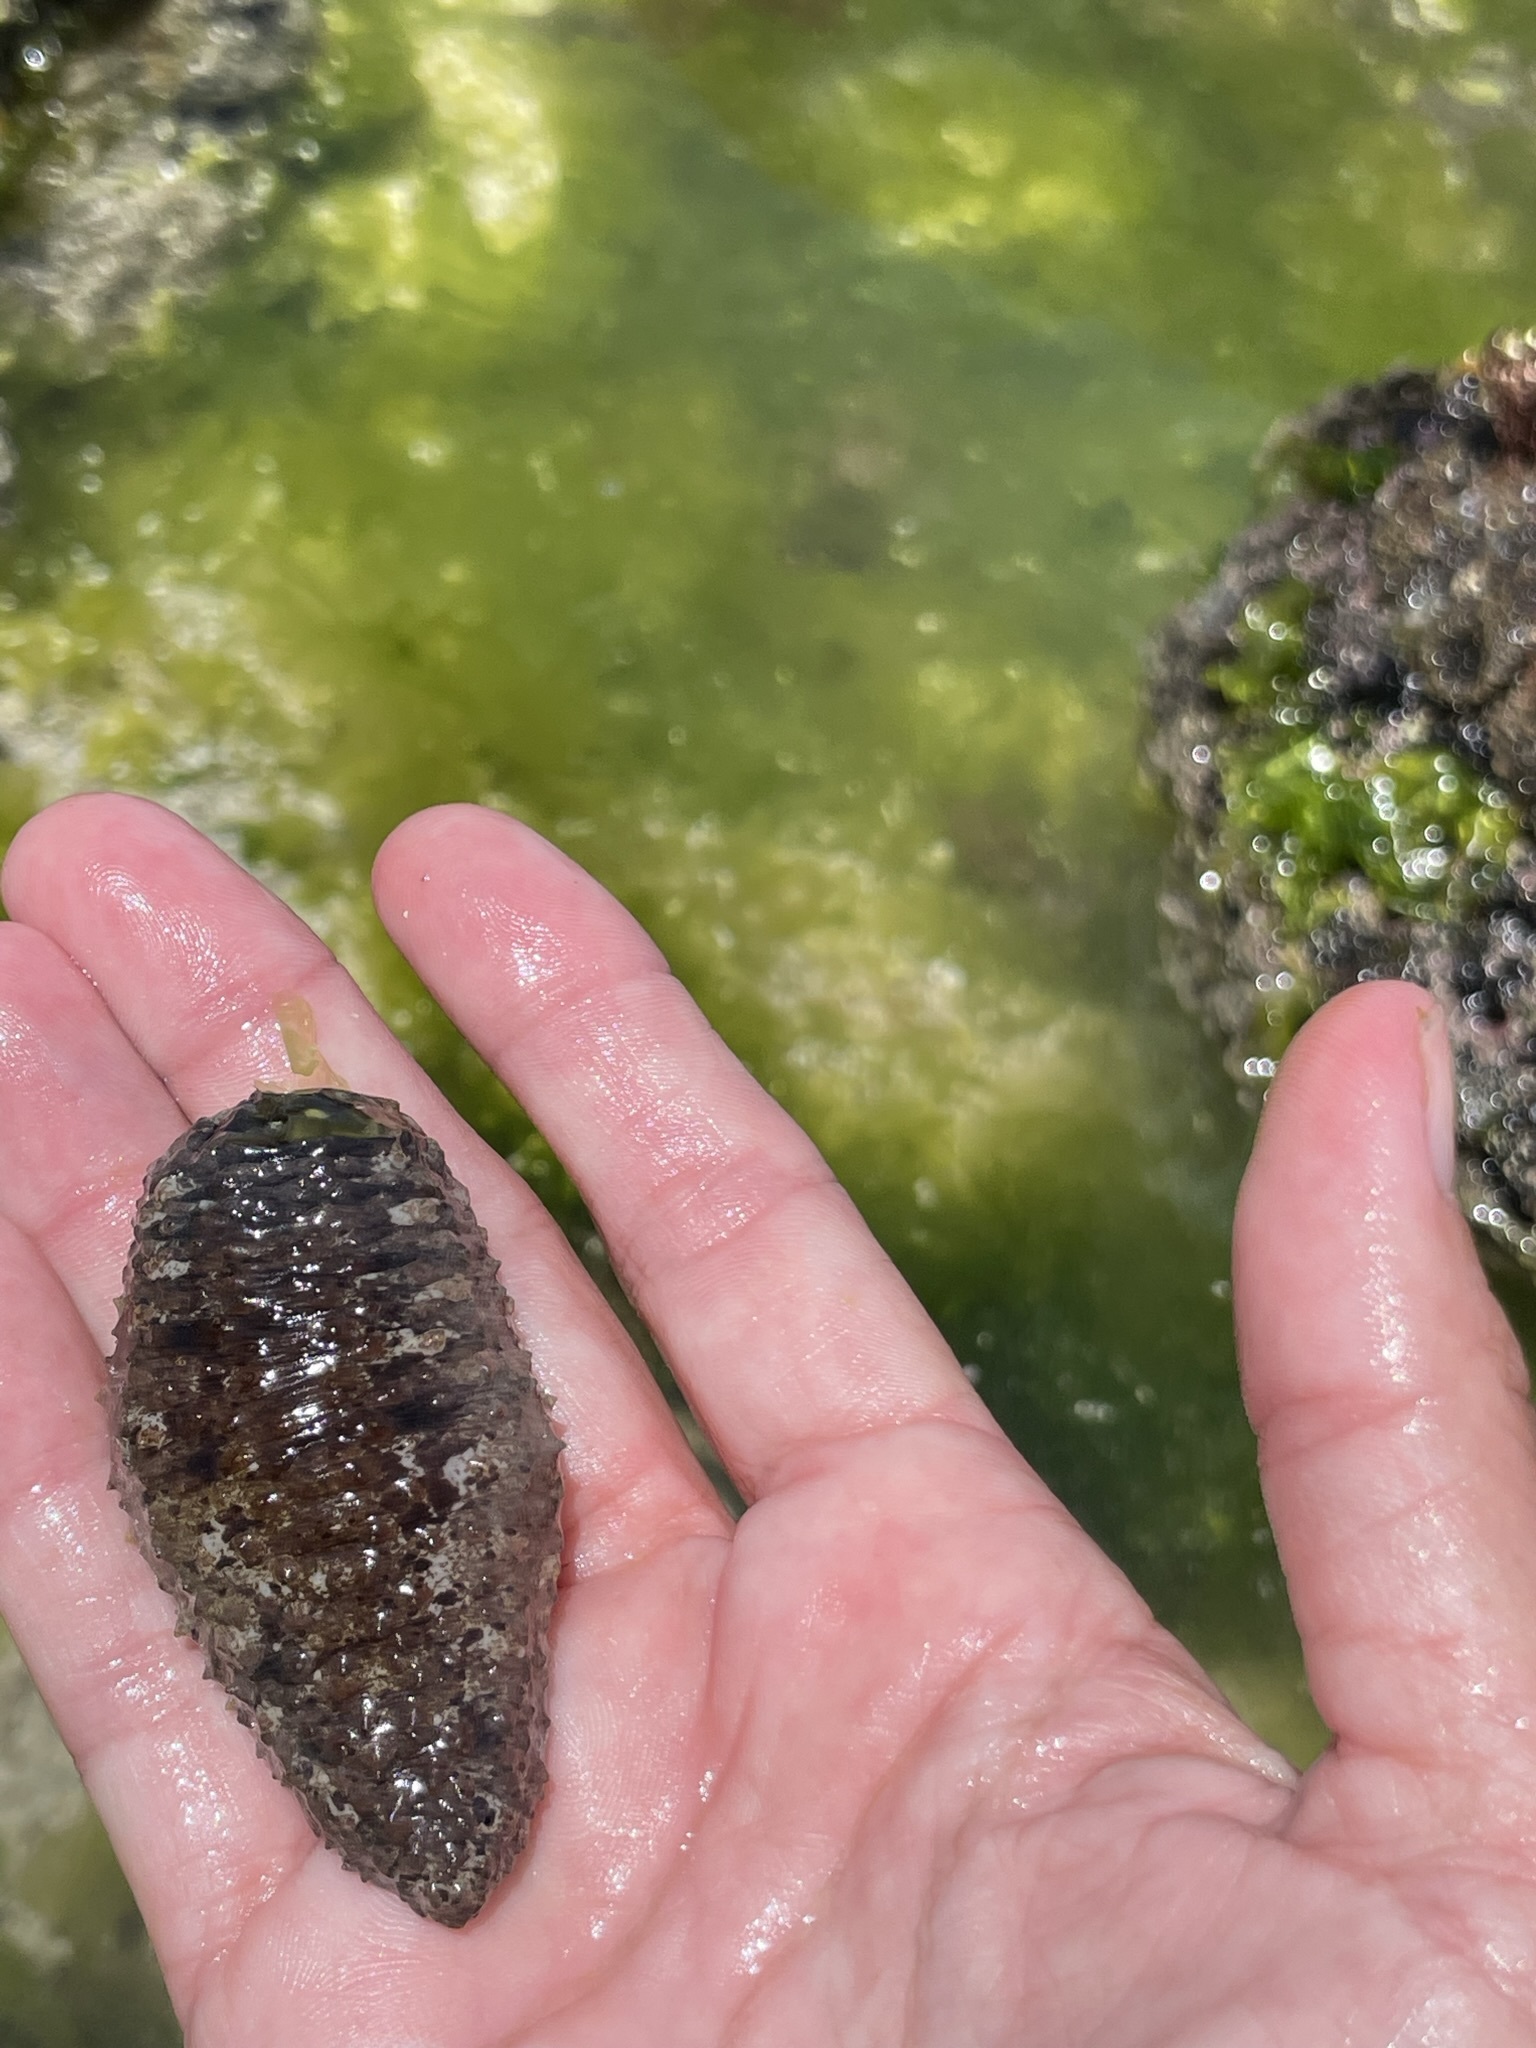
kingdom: Animalia
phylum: Echinodermata
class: Holothuroidea
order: Holothuriida
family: Holothuriidae
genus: Holothuria
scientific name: Holothuria arenicola
